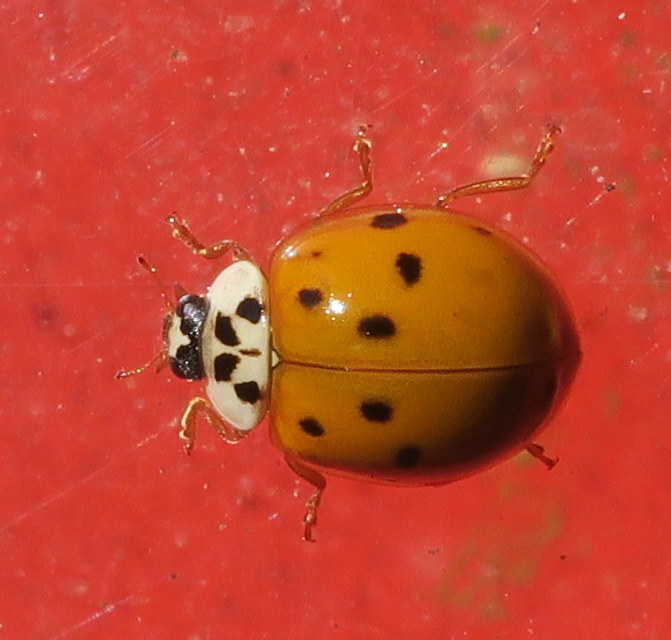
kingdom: Animalia
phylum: Arthropoda
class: Insecta
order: Coleoptera
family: Coccinellidae
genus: Harmonia
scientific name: Harmonia axyridis
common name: Harlequin ladybird
